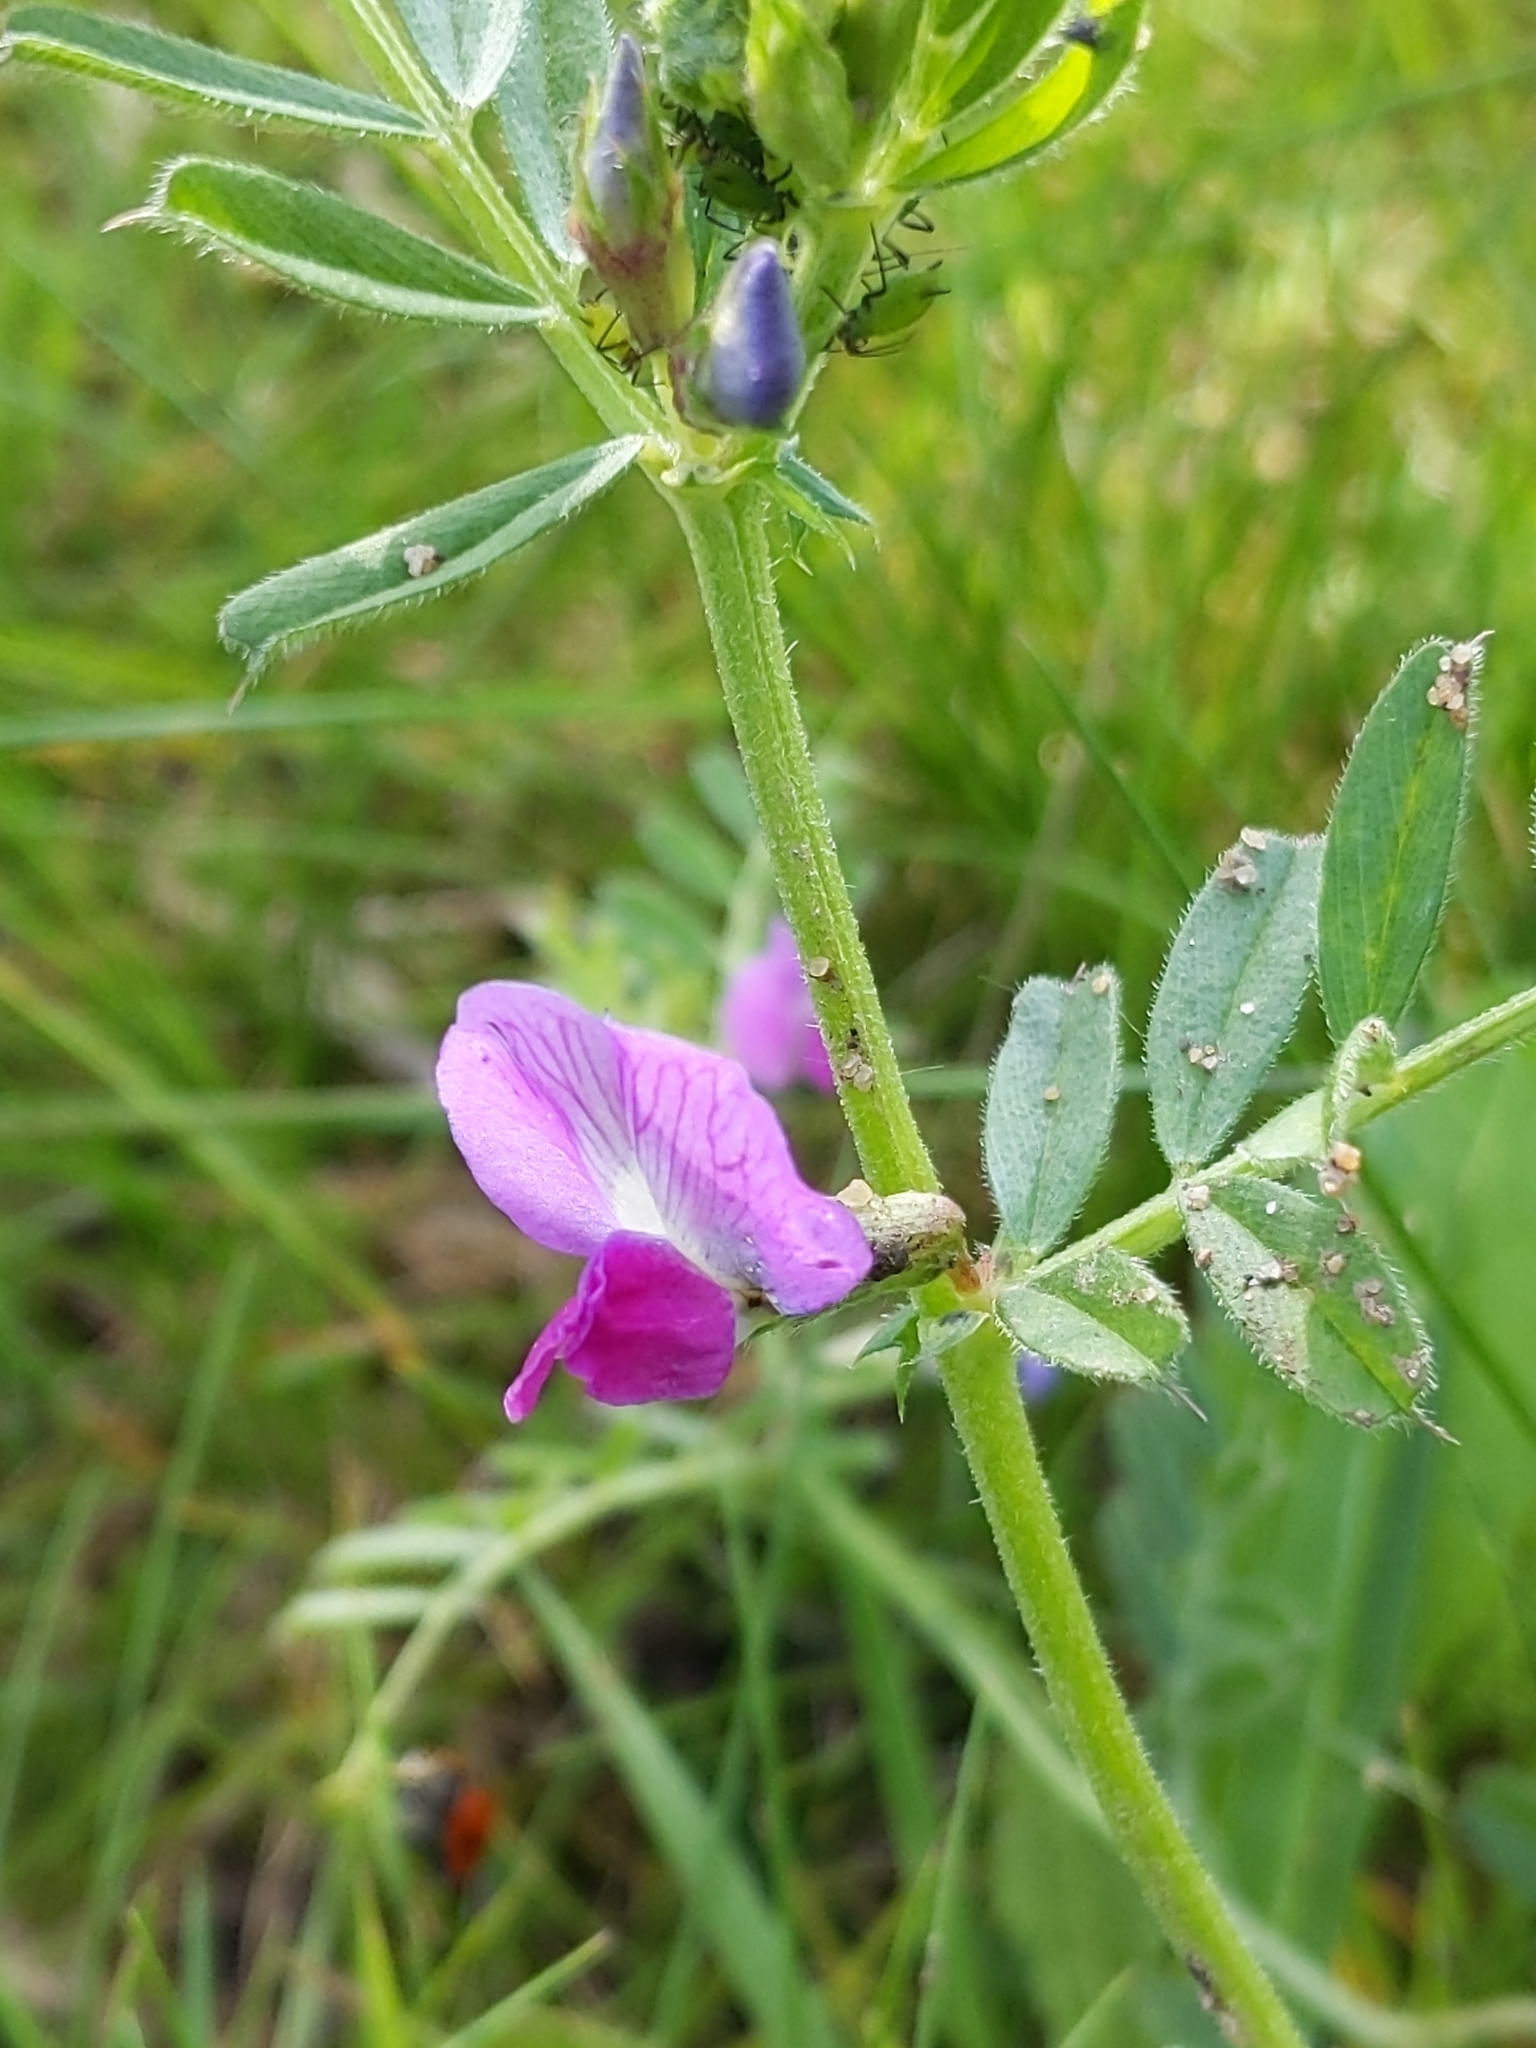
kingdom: Plantae
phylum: Tracheophyta
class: Magnoliopsida
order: Fabales
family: Fabaceae
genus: Vicia
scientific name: Vicia sativa
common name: Garden vetch
